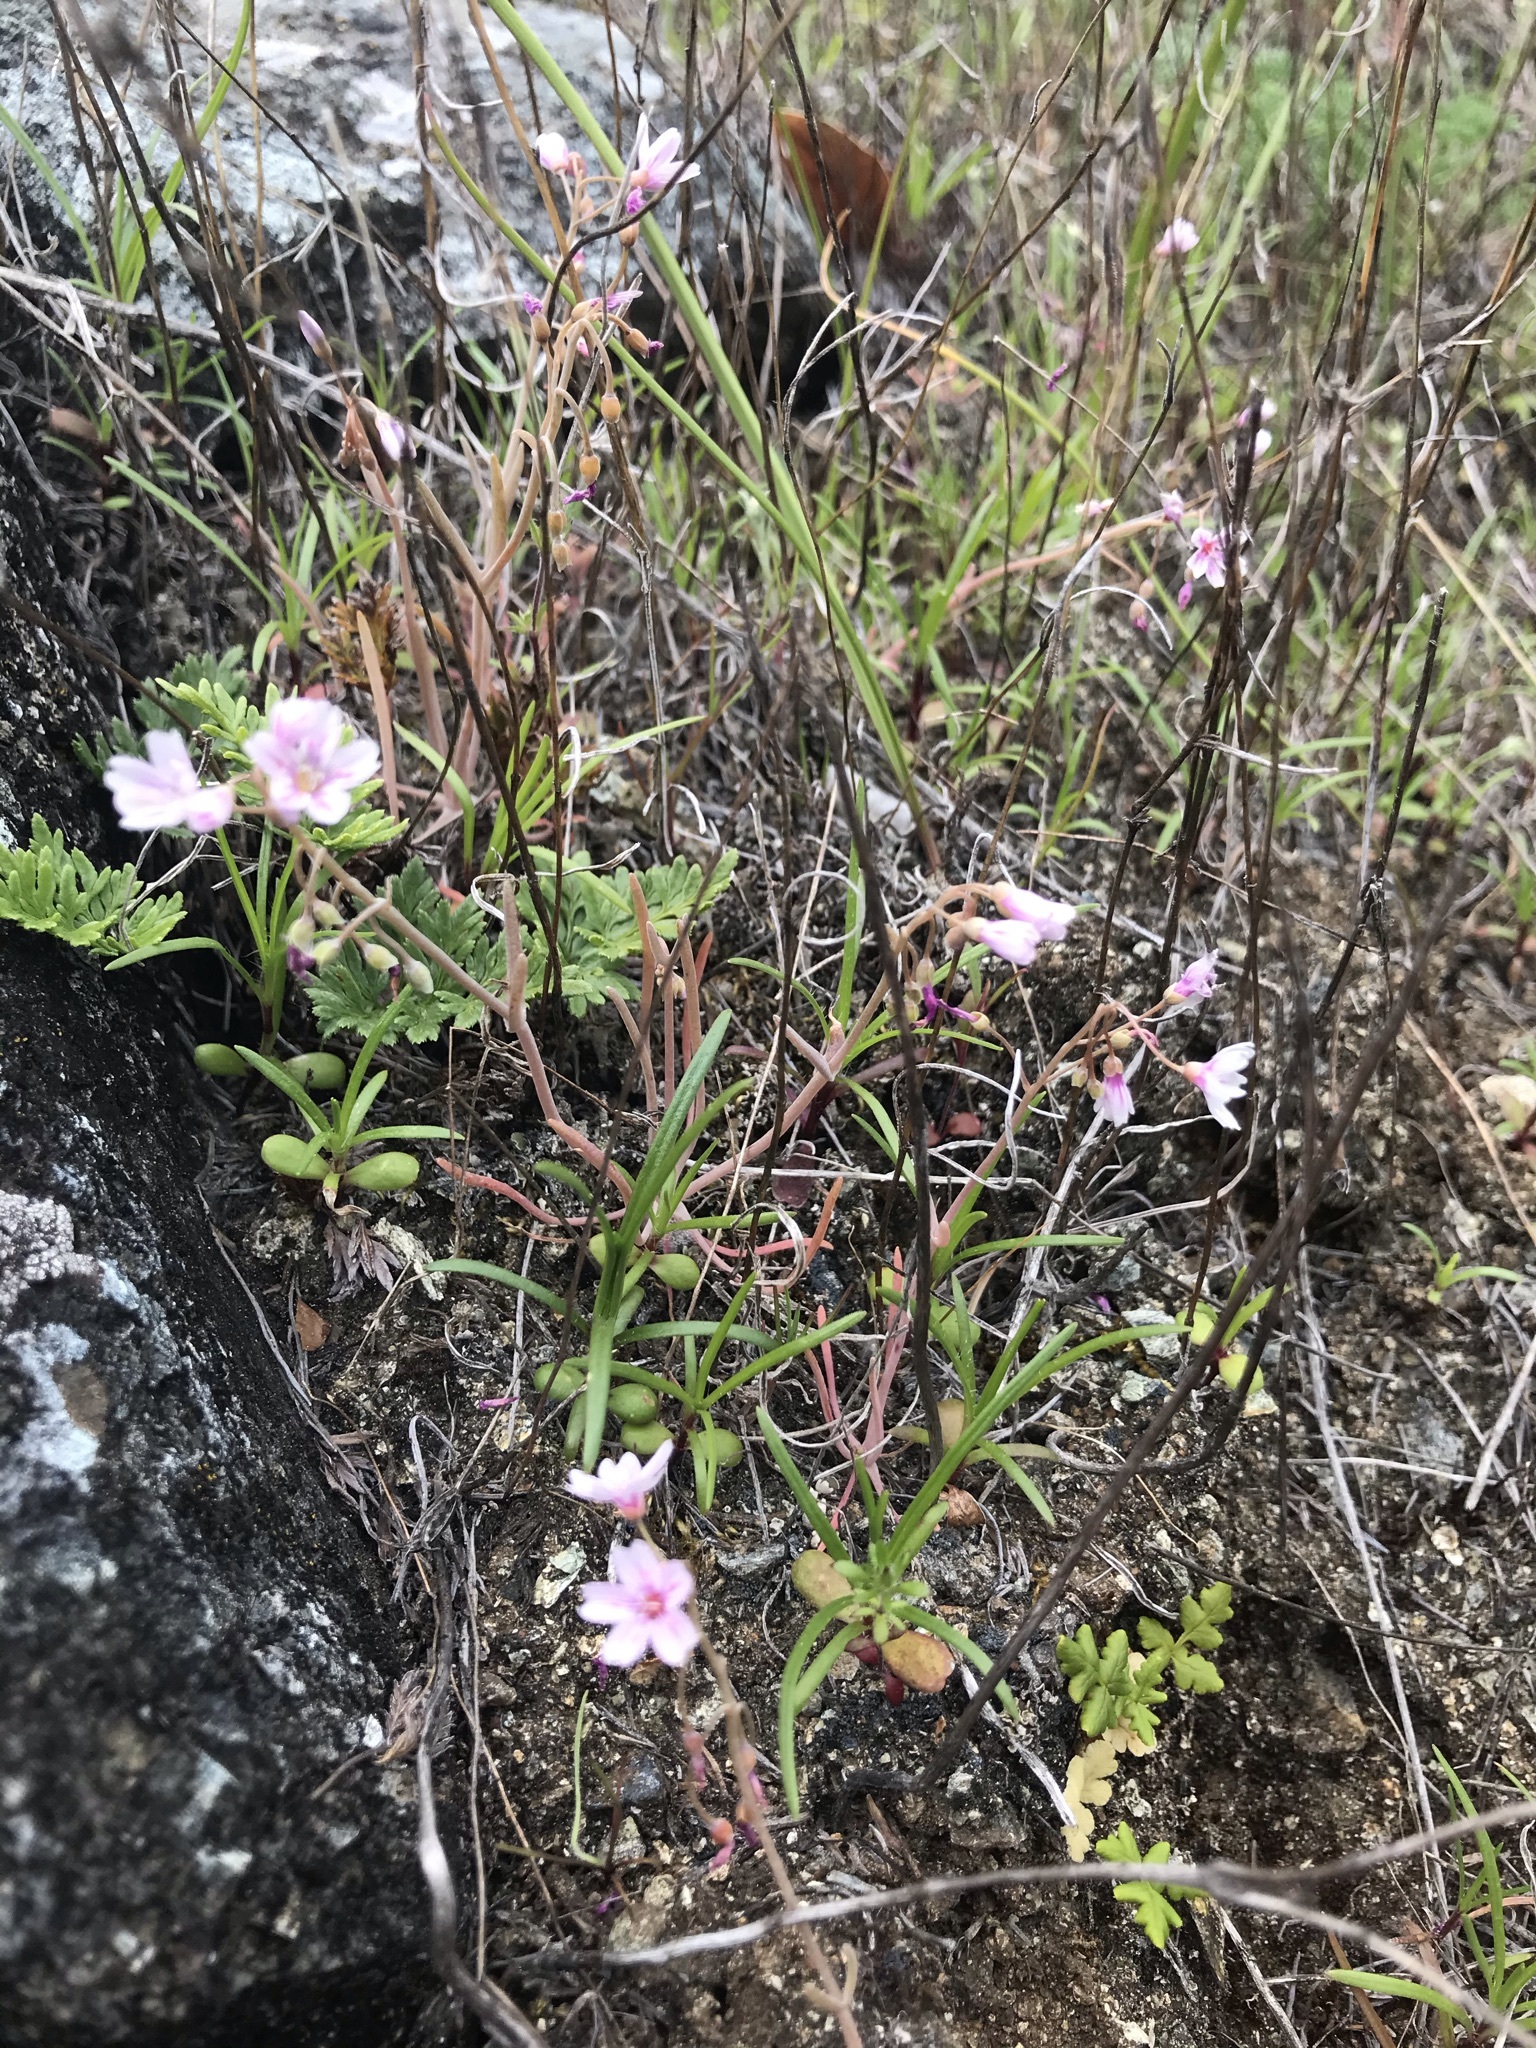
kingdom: Plantae
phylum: Tracheophyta
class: Magnoliopsida
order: Caryophyllales
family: Montiaceae
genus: Claytonia
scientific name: Claytonia gypsophiloides
